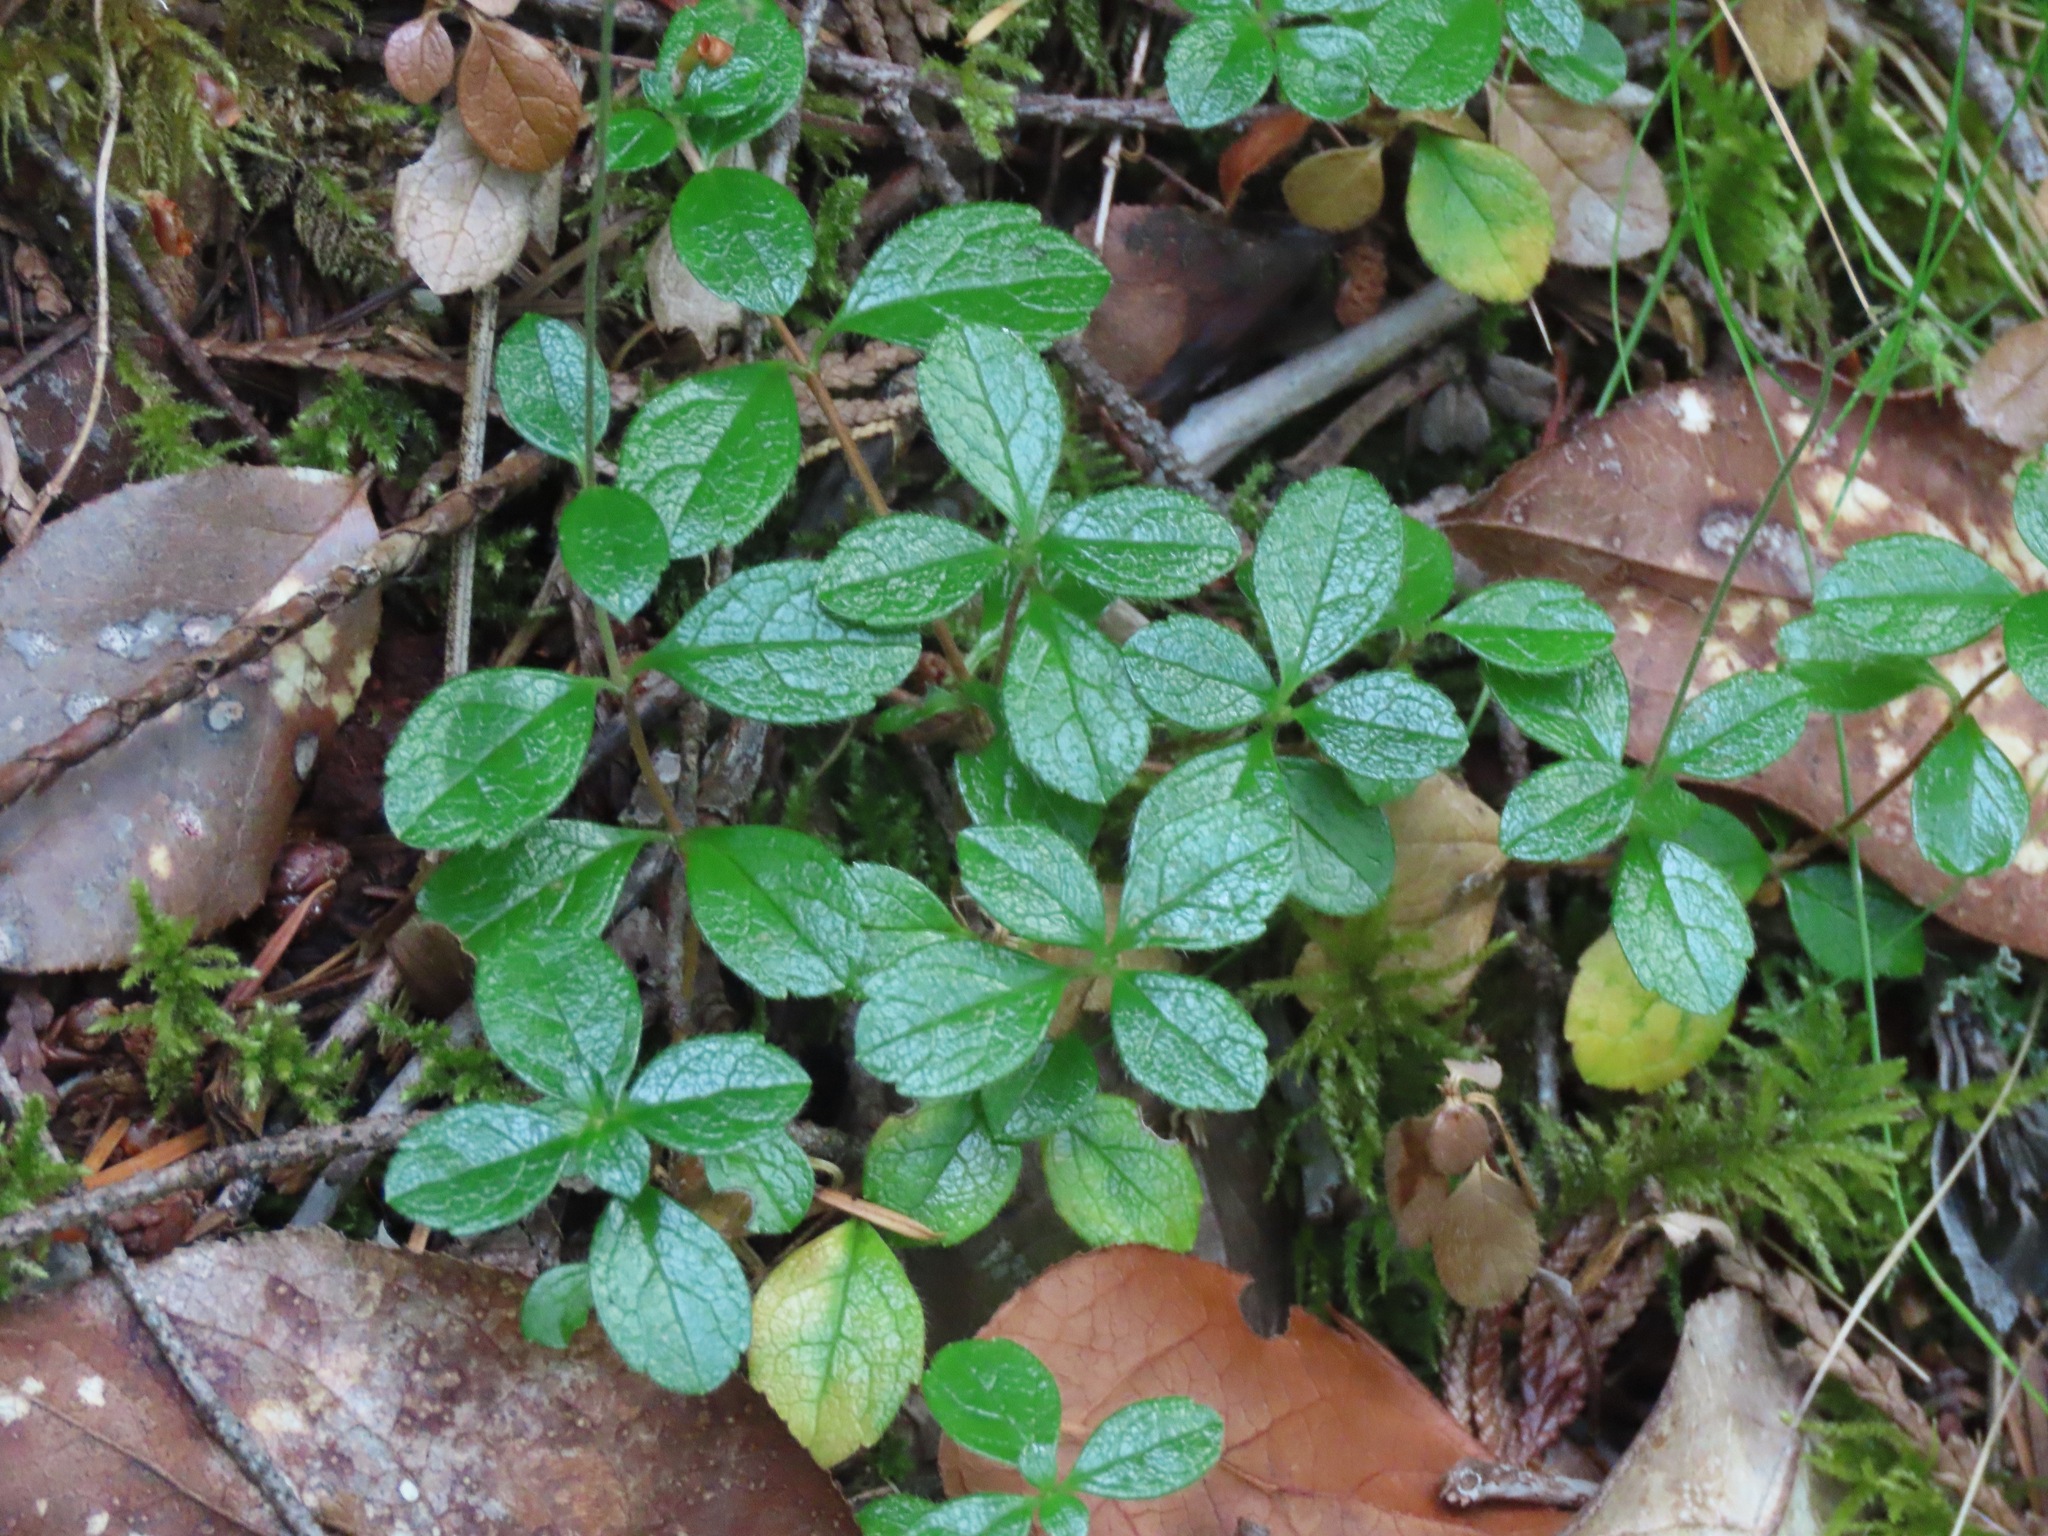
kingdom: Plantae
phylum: Tracheophyta
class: Magnoliopsida
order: Dipsacales
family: Caprifoliaceae
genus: Linnaea
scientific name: Linnaea borealis
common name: Twinflower
